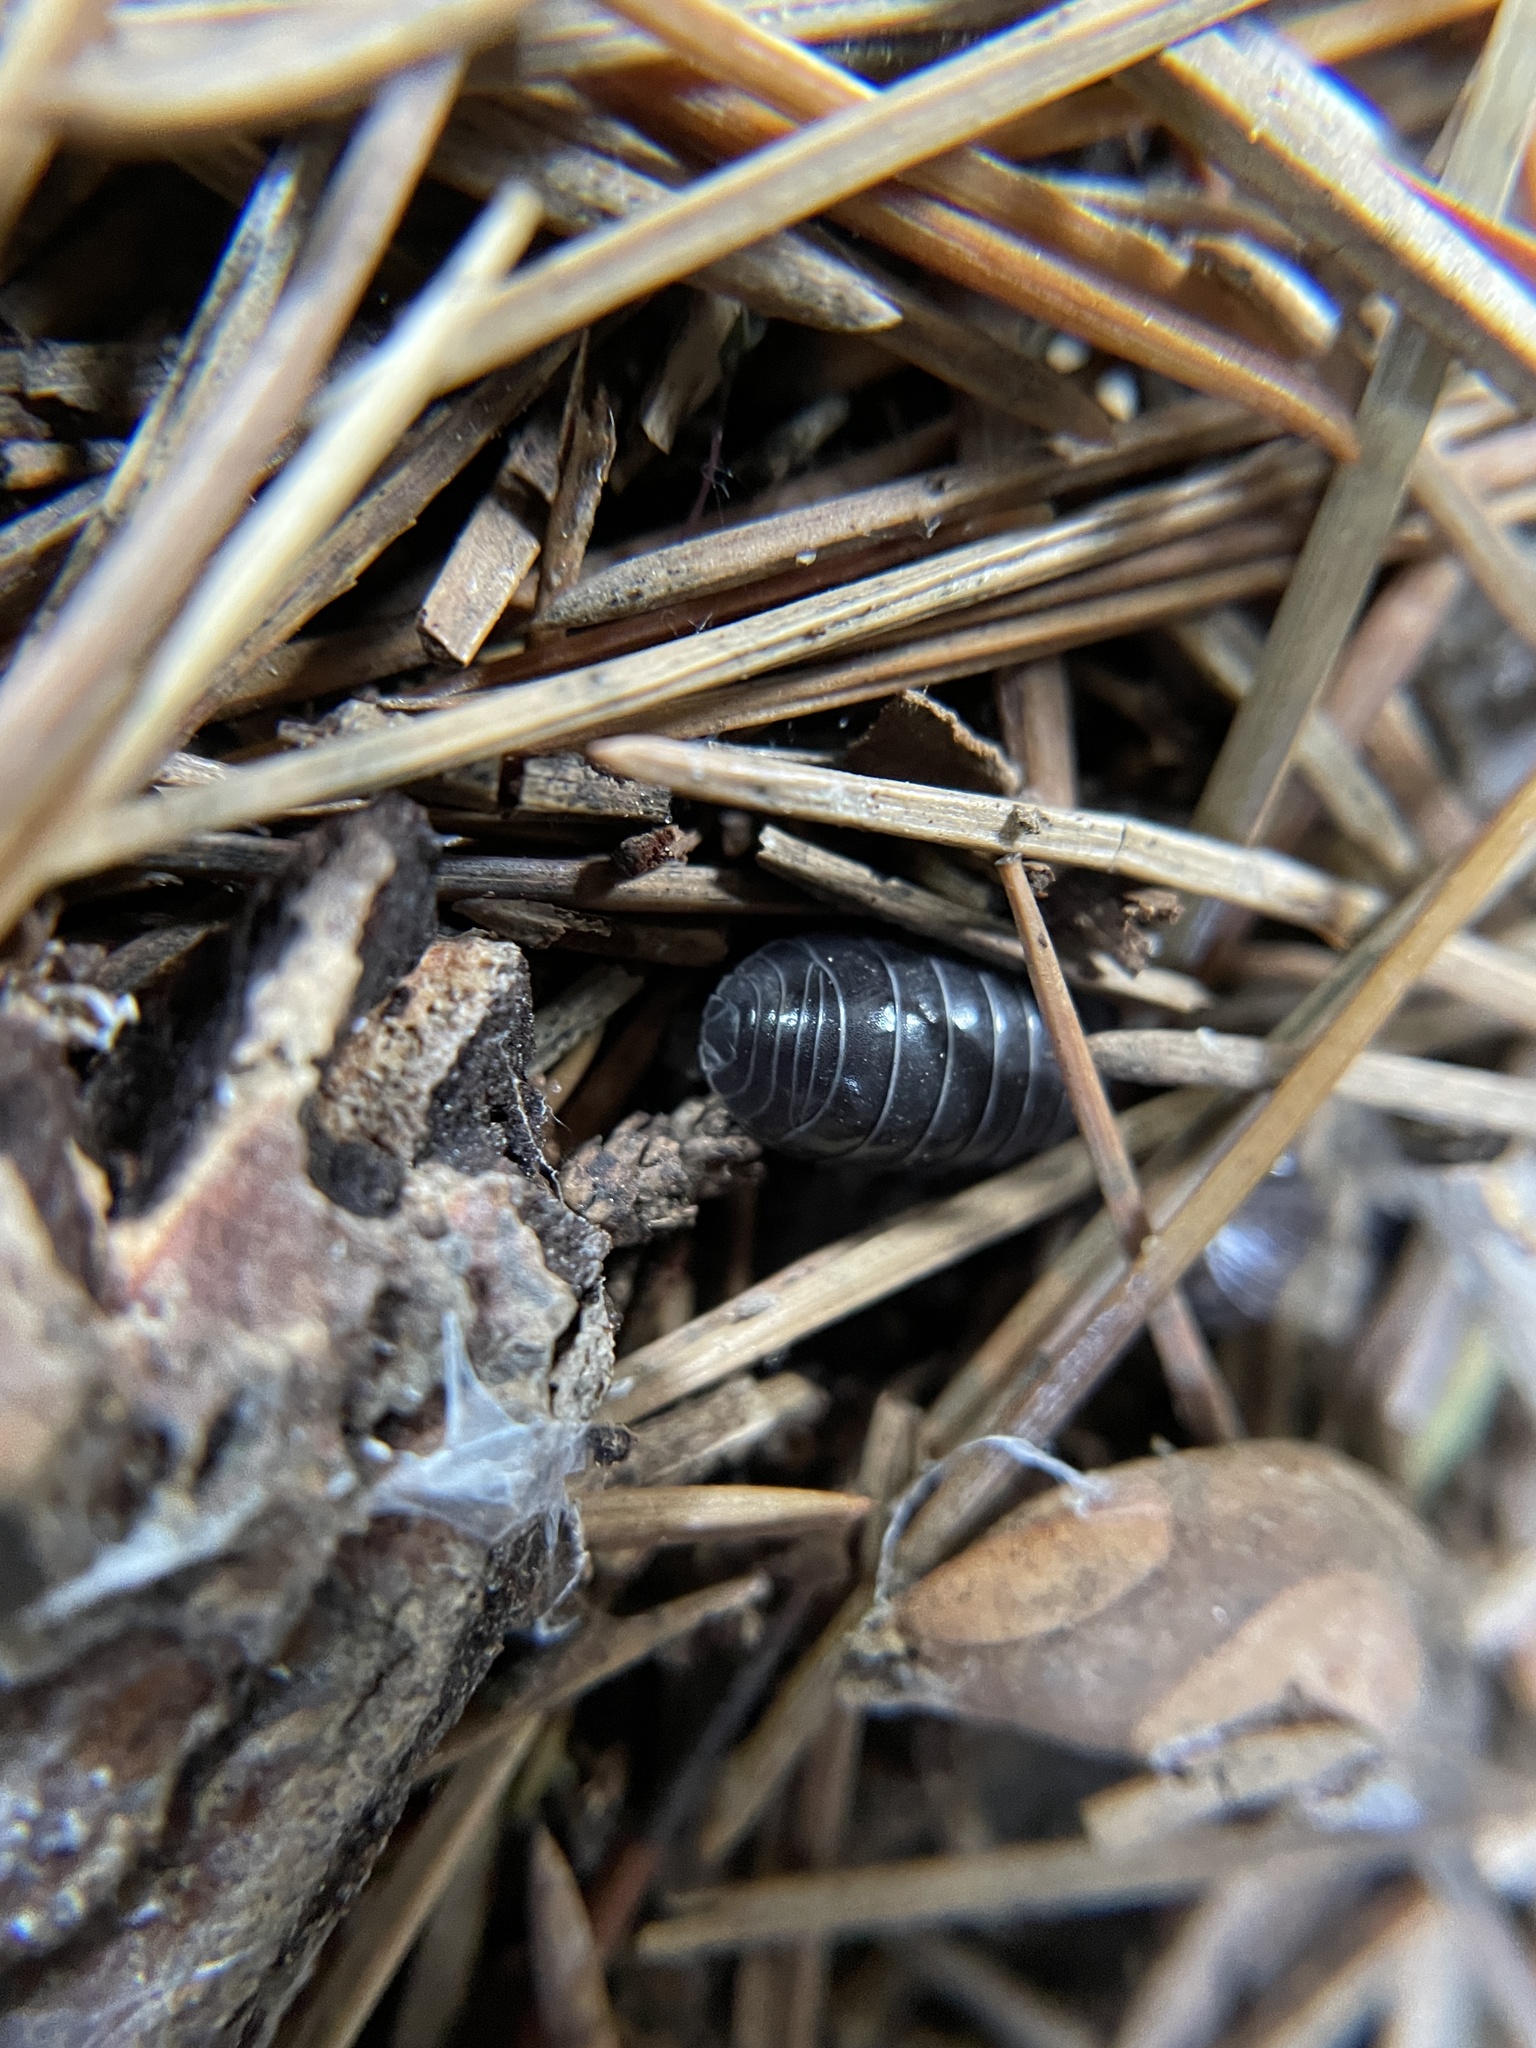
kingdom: Animalia
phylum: Arthropoda
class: Malacostraca
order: Isopoda
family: Armadillidiidae
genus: Armadillidium
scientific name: Armadillidium vulgare
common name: Common pill woodlouse
